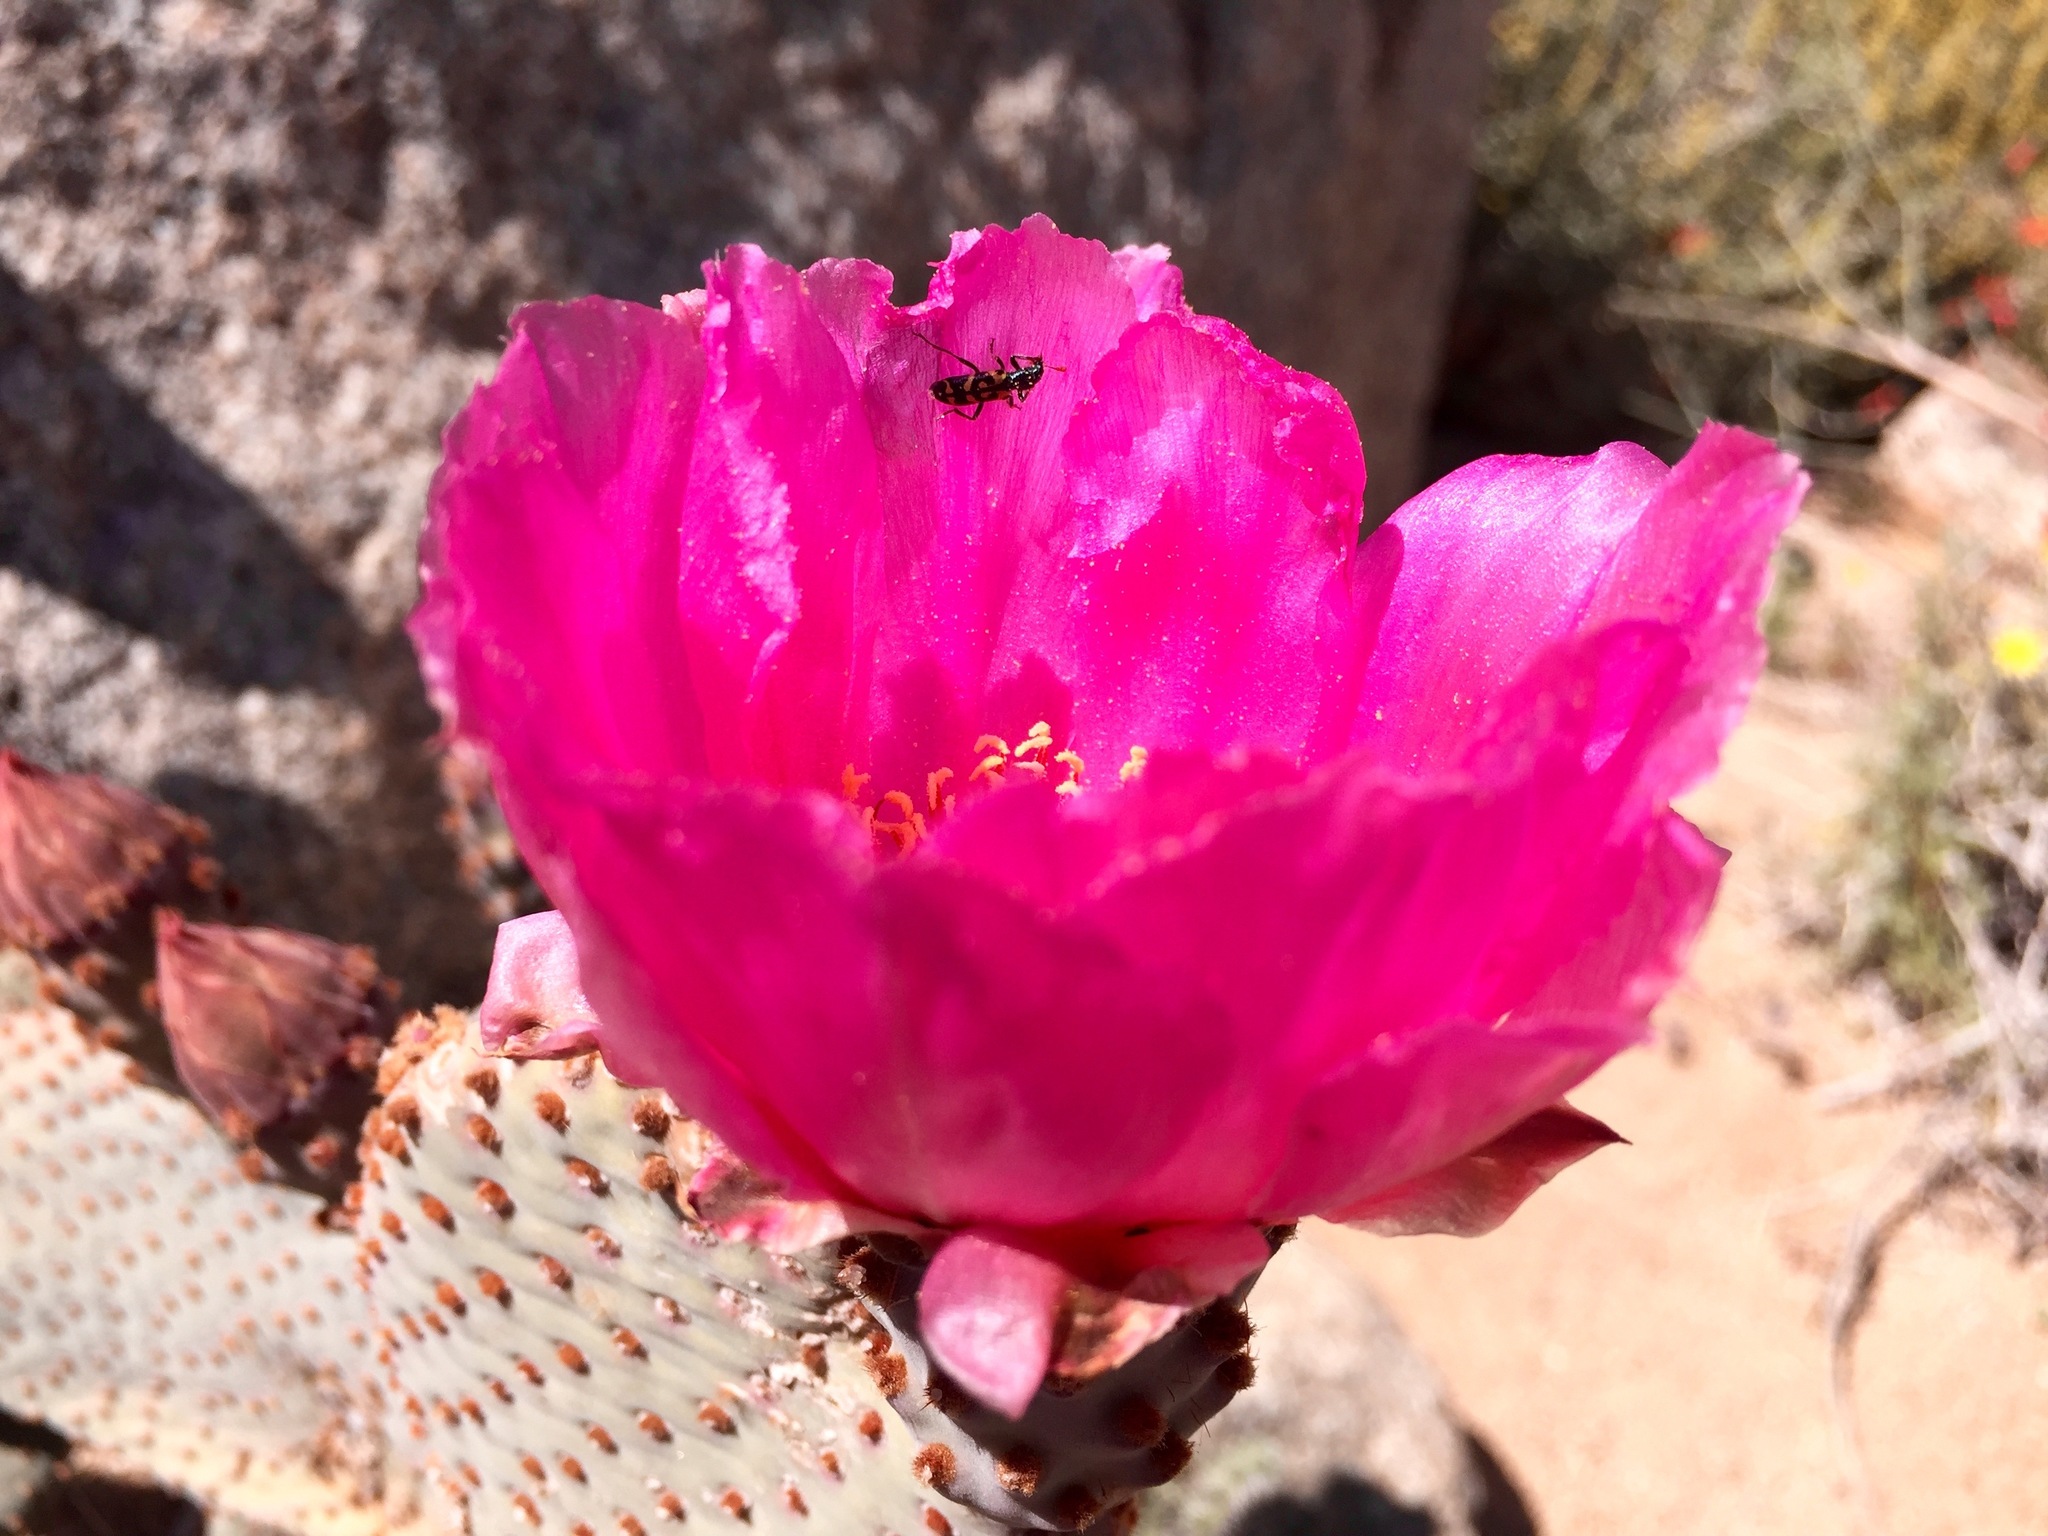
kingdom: Plantae
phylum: Tracheophyta
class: Magnoliopsida
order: Caryophyllales
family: Cactaceae
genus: Opuntia
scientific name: Opuntia basilaris
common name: Beavertail prickly-pear
